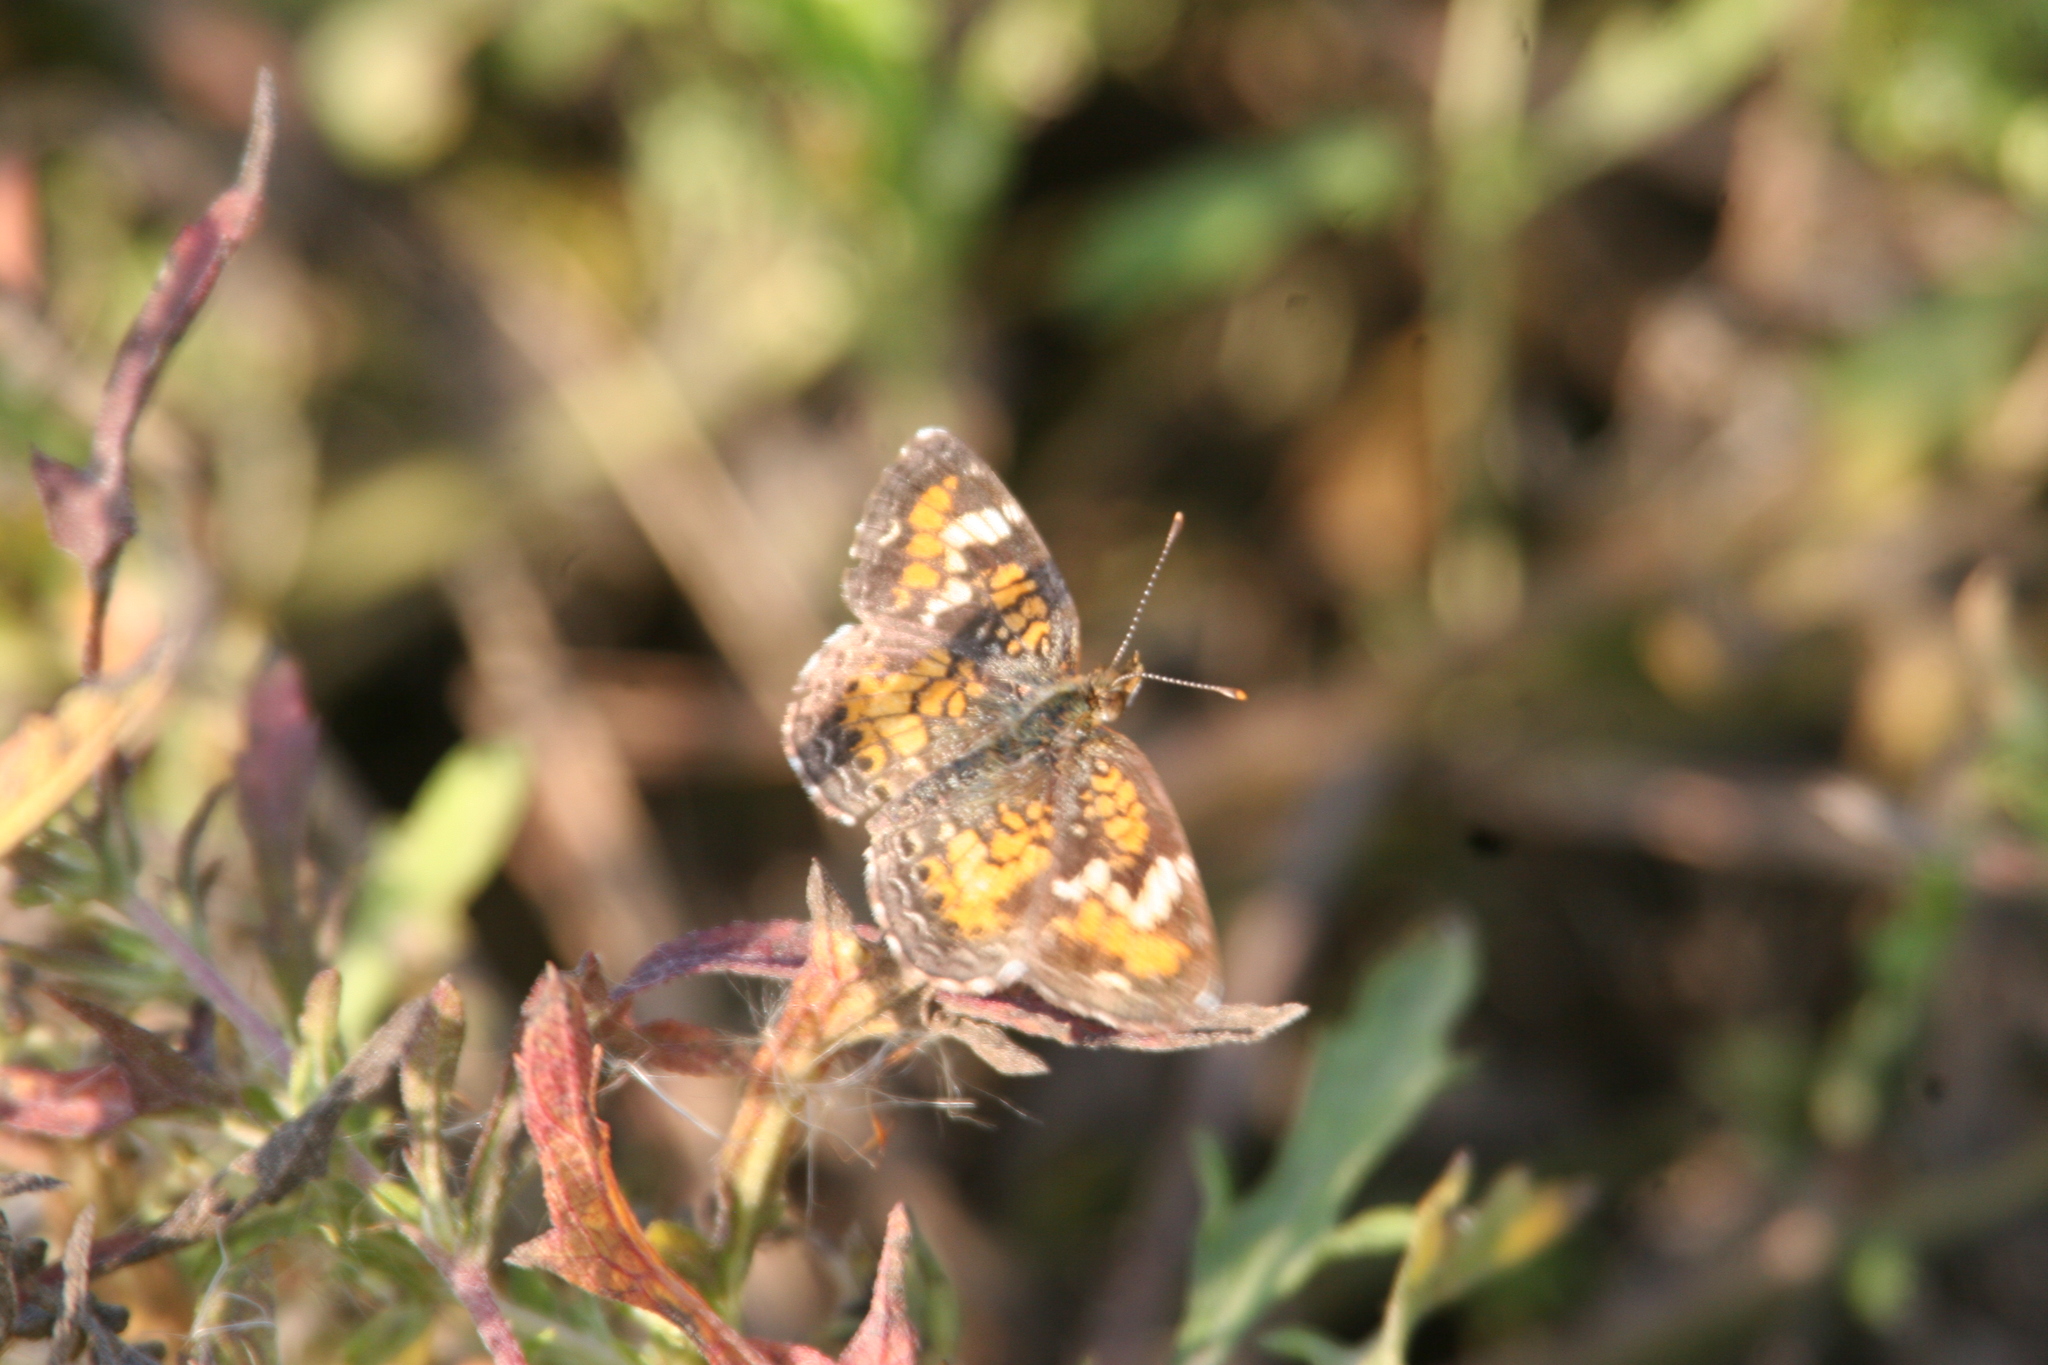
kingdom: Animalia
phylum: Arthropoda
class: Insecta
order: Lepidoptera
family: Nymphalidae
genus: Phyciodes
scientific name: Phyciodes phaon
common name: Phaon crescent
